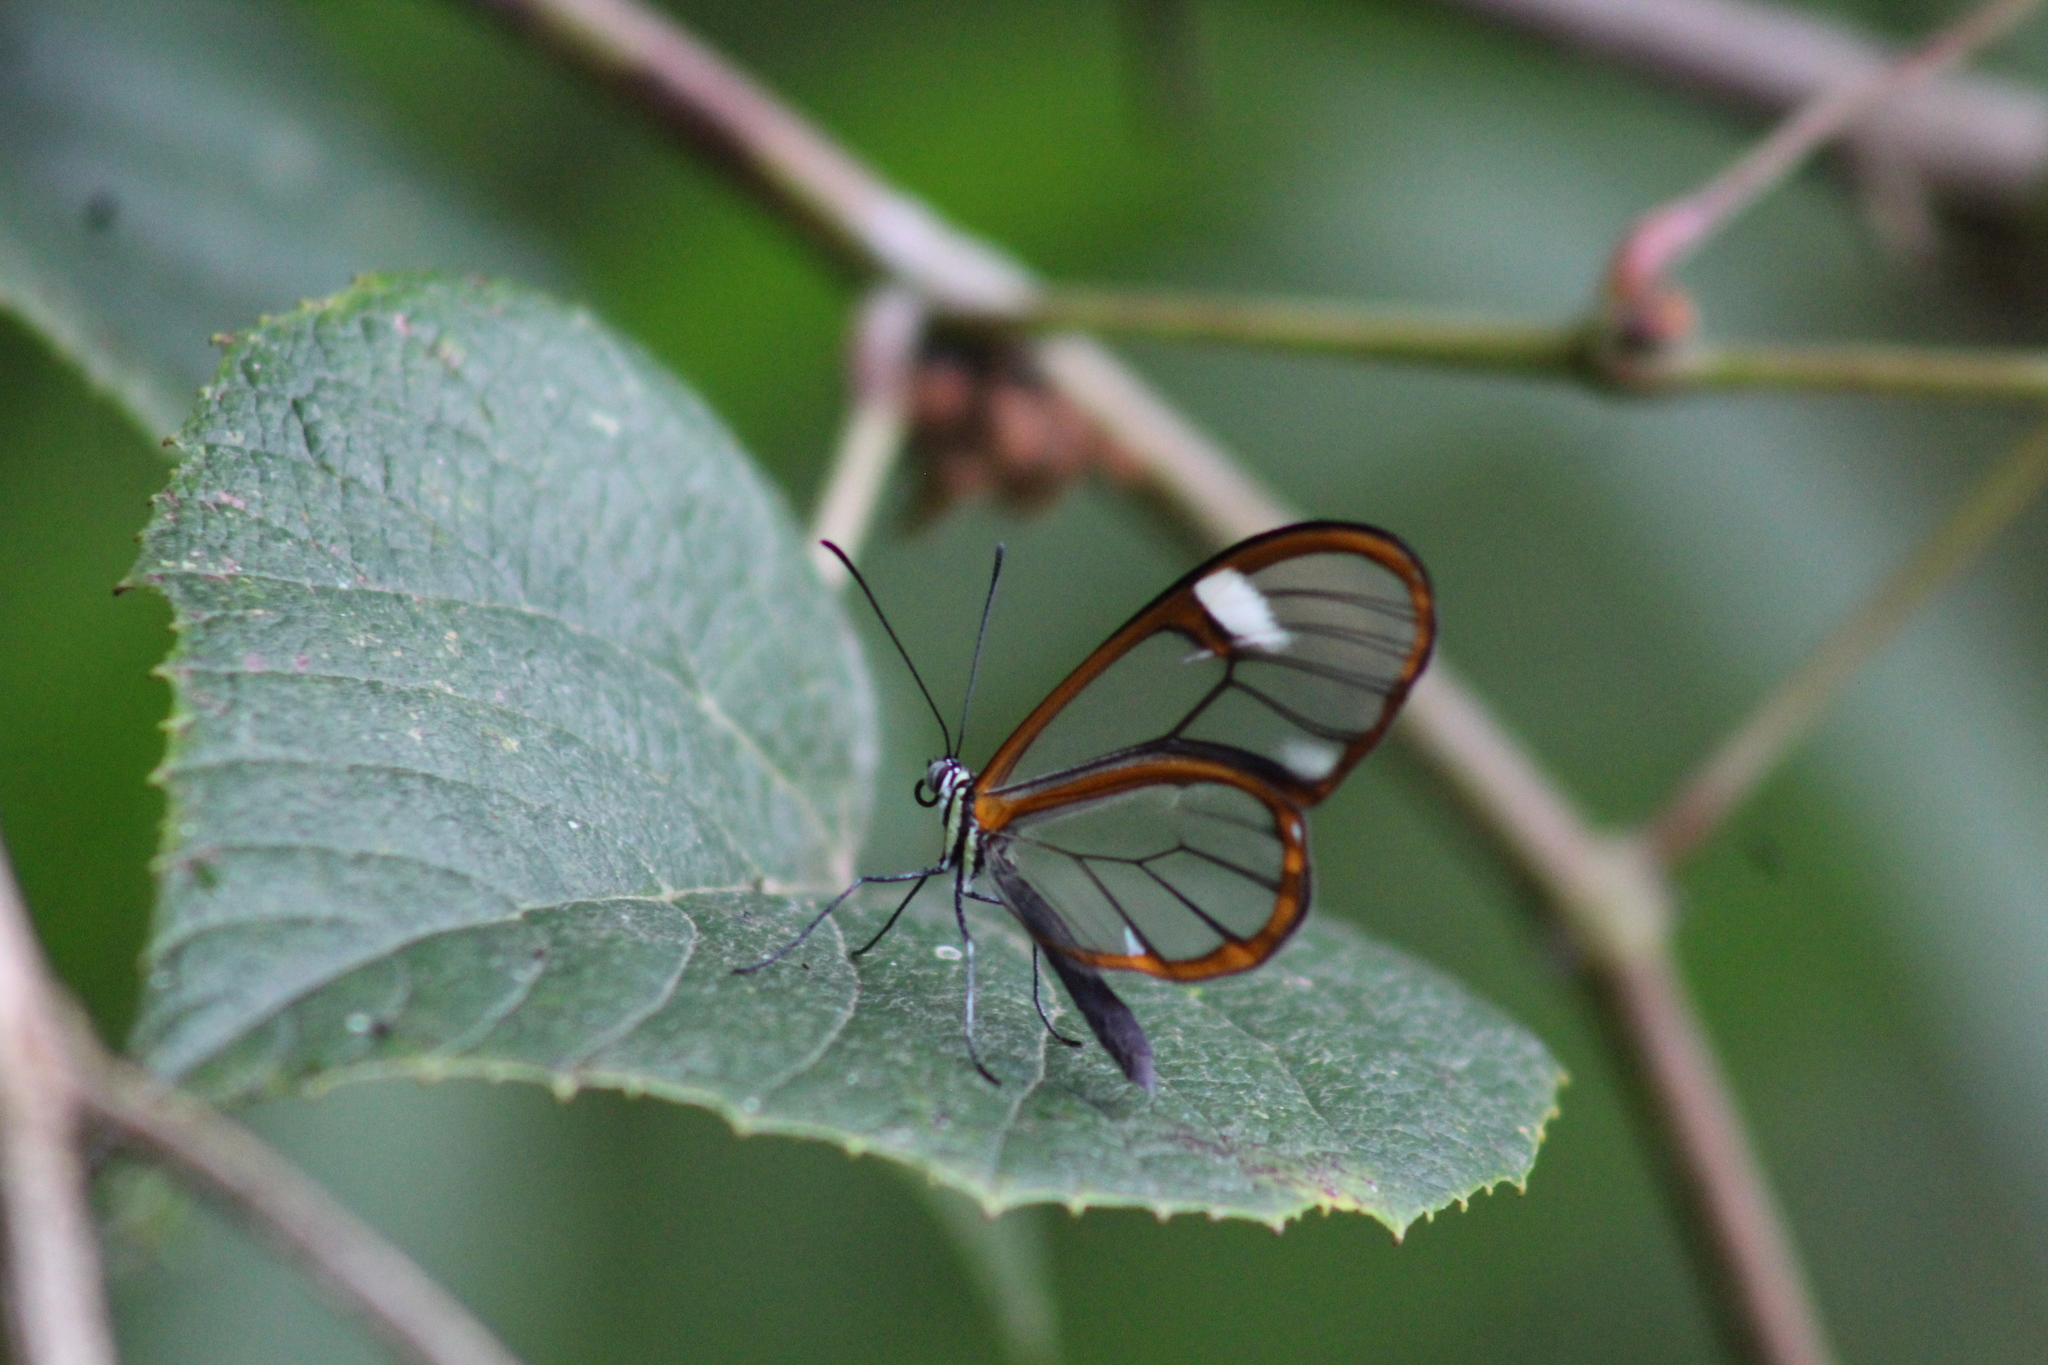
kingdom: Animalia
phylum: Arthropoda
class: Insecta
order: Lepidoptera
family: Nymphalidae
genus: Episcada
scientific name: Episcada salvinia
